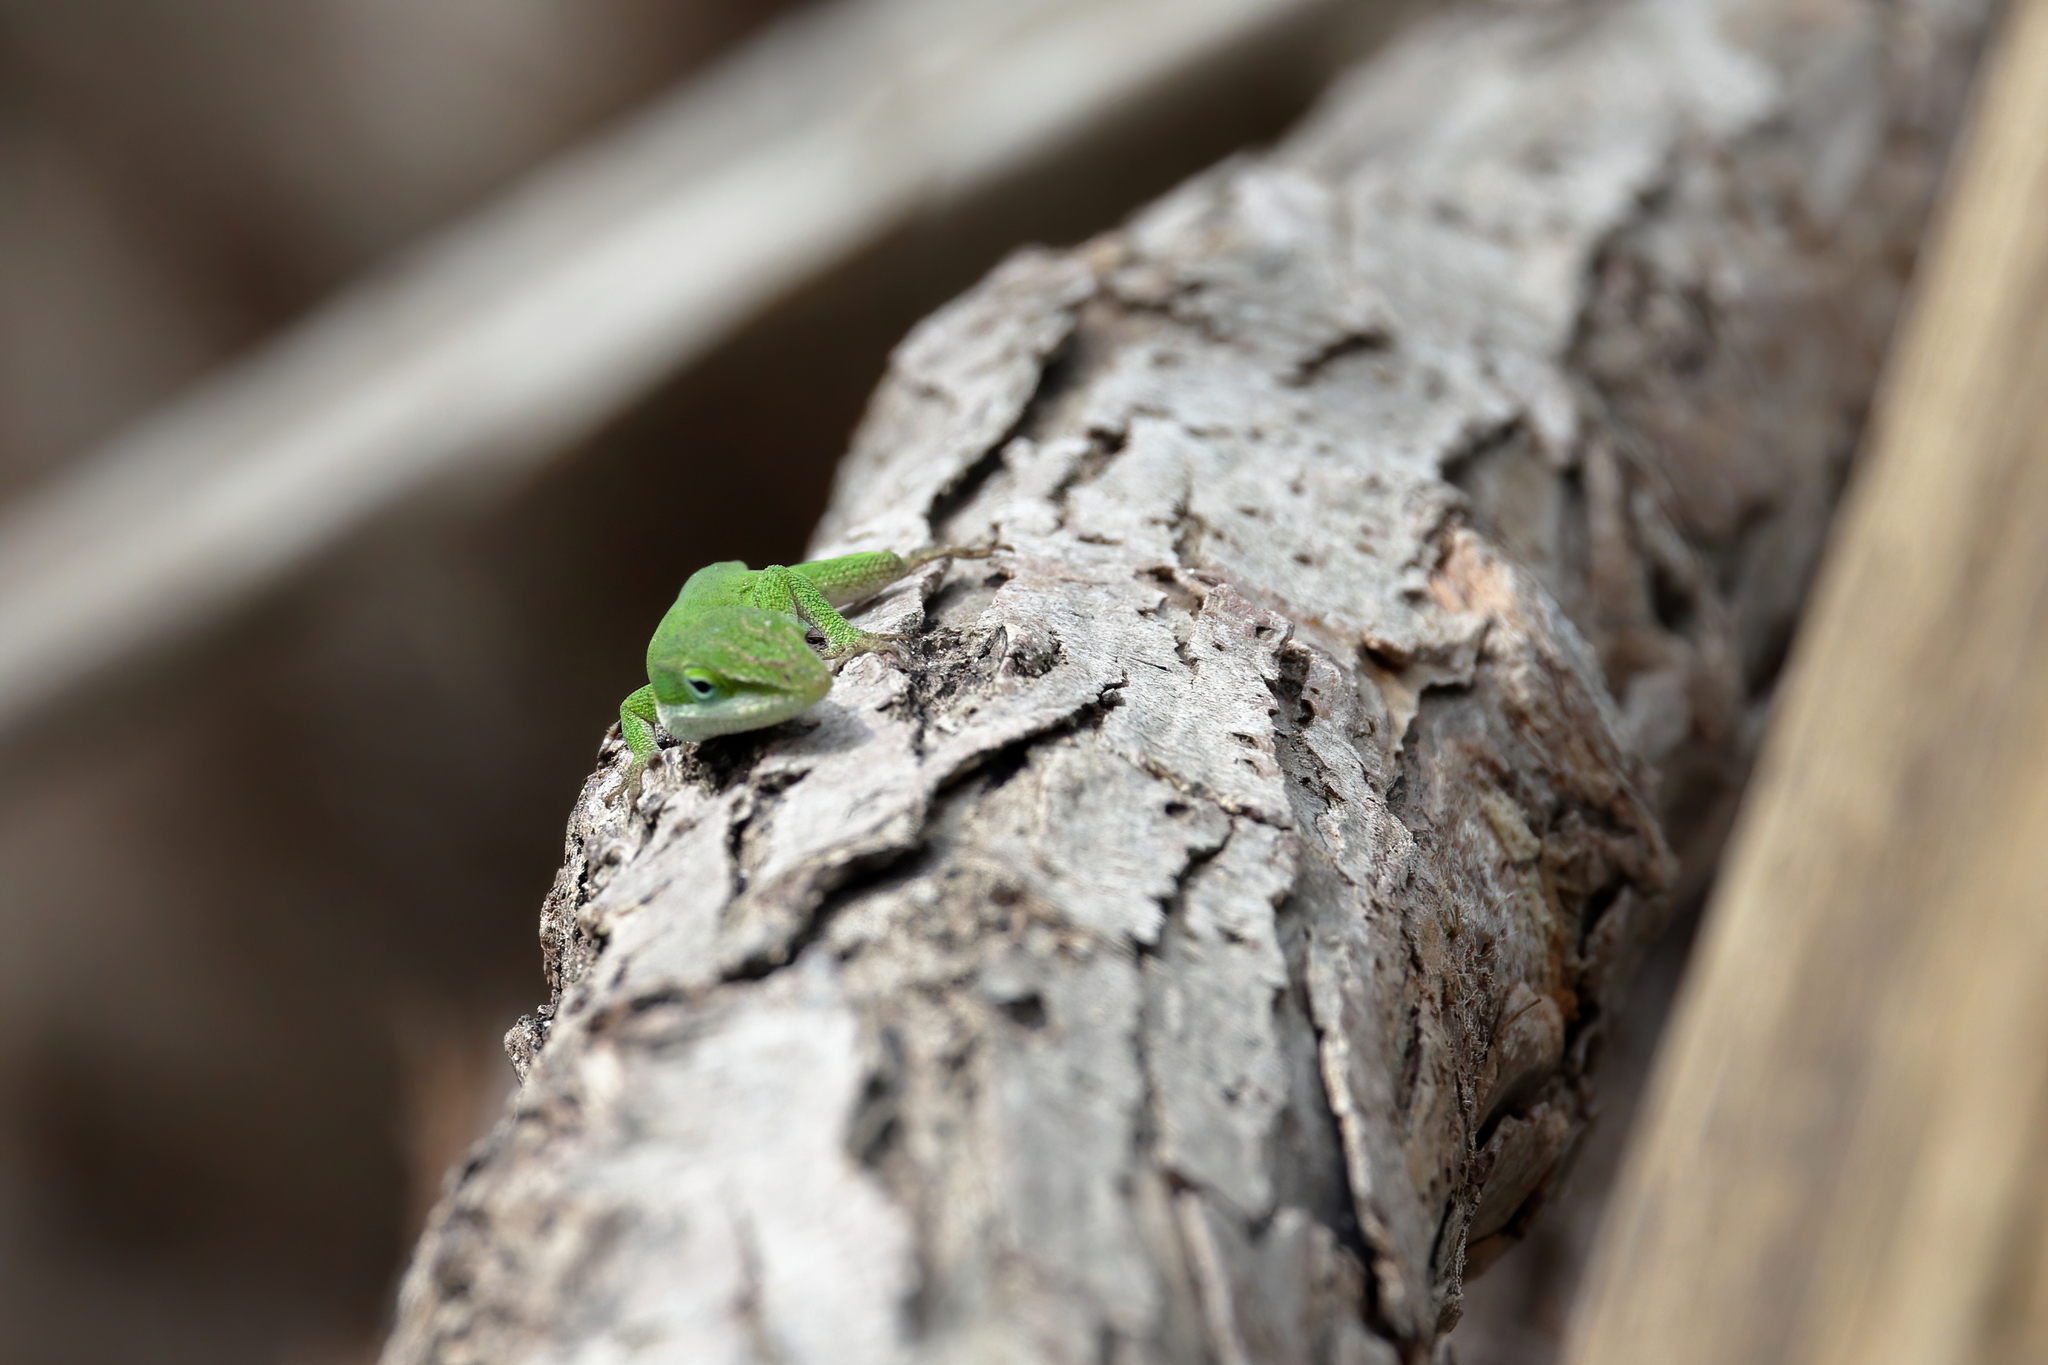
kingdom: Animalia
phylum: Chordata
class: Squamata
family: Dactyloidae
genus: Anolis
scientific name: Anolis carolinensis
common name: Green anole
